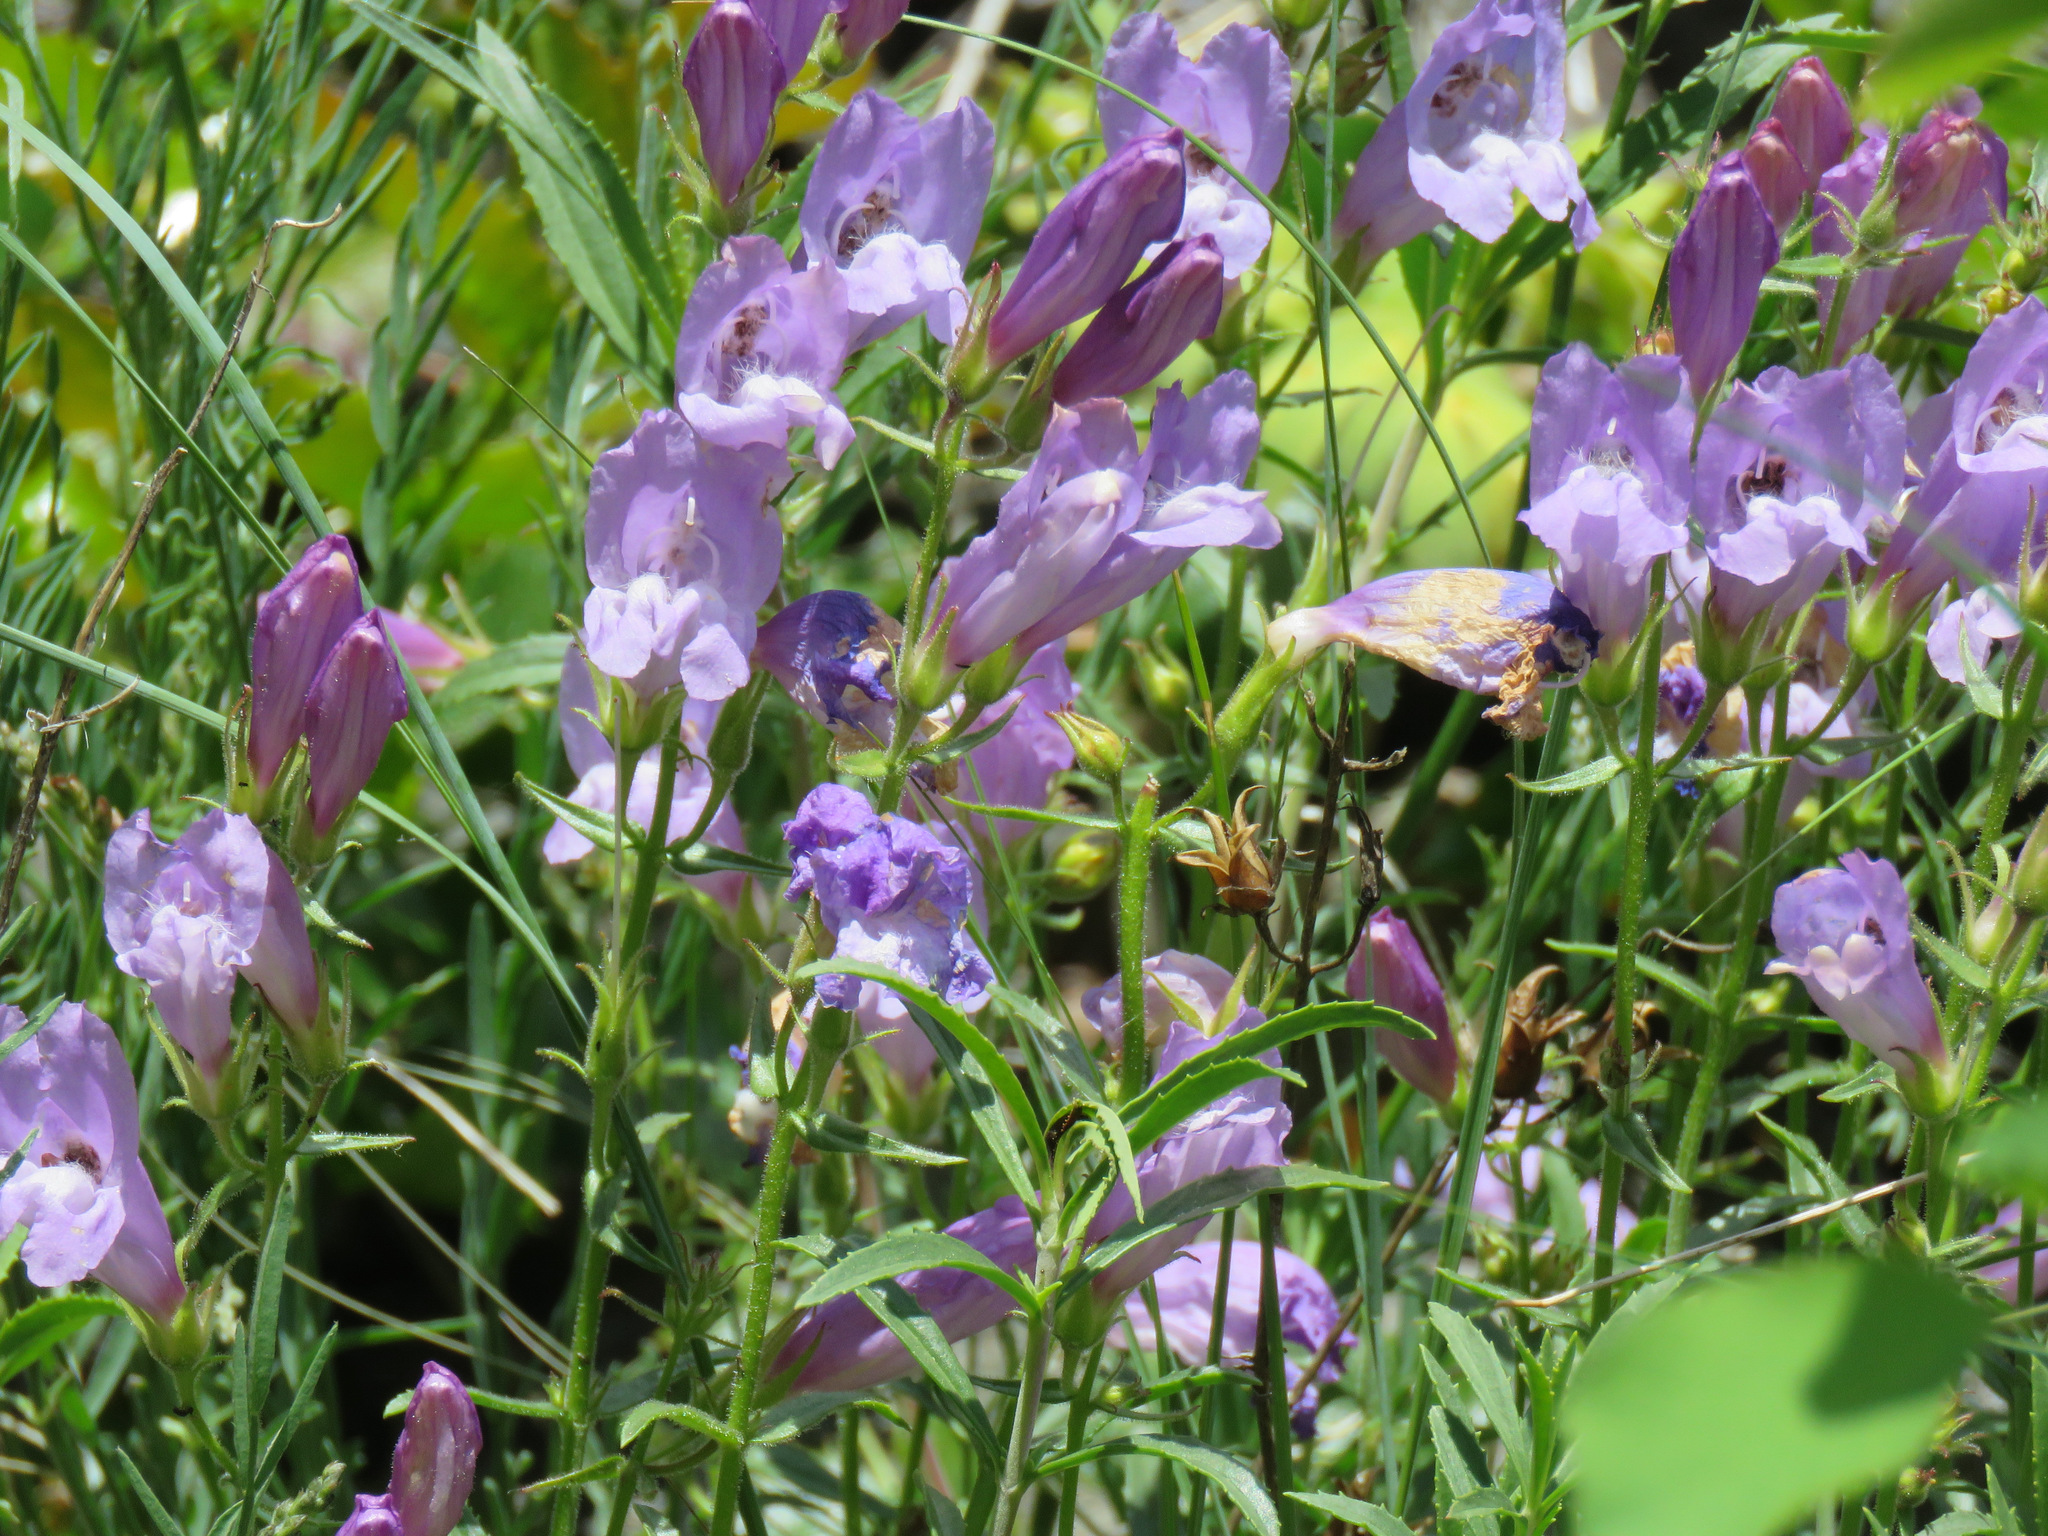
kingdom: Plantae
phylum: Tracheophyta
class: Magnoliopsida
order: Lamiales
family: Plantaginaceae
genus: Penstemon
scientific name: Penstemon fruticosus
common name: Bush penstemon
